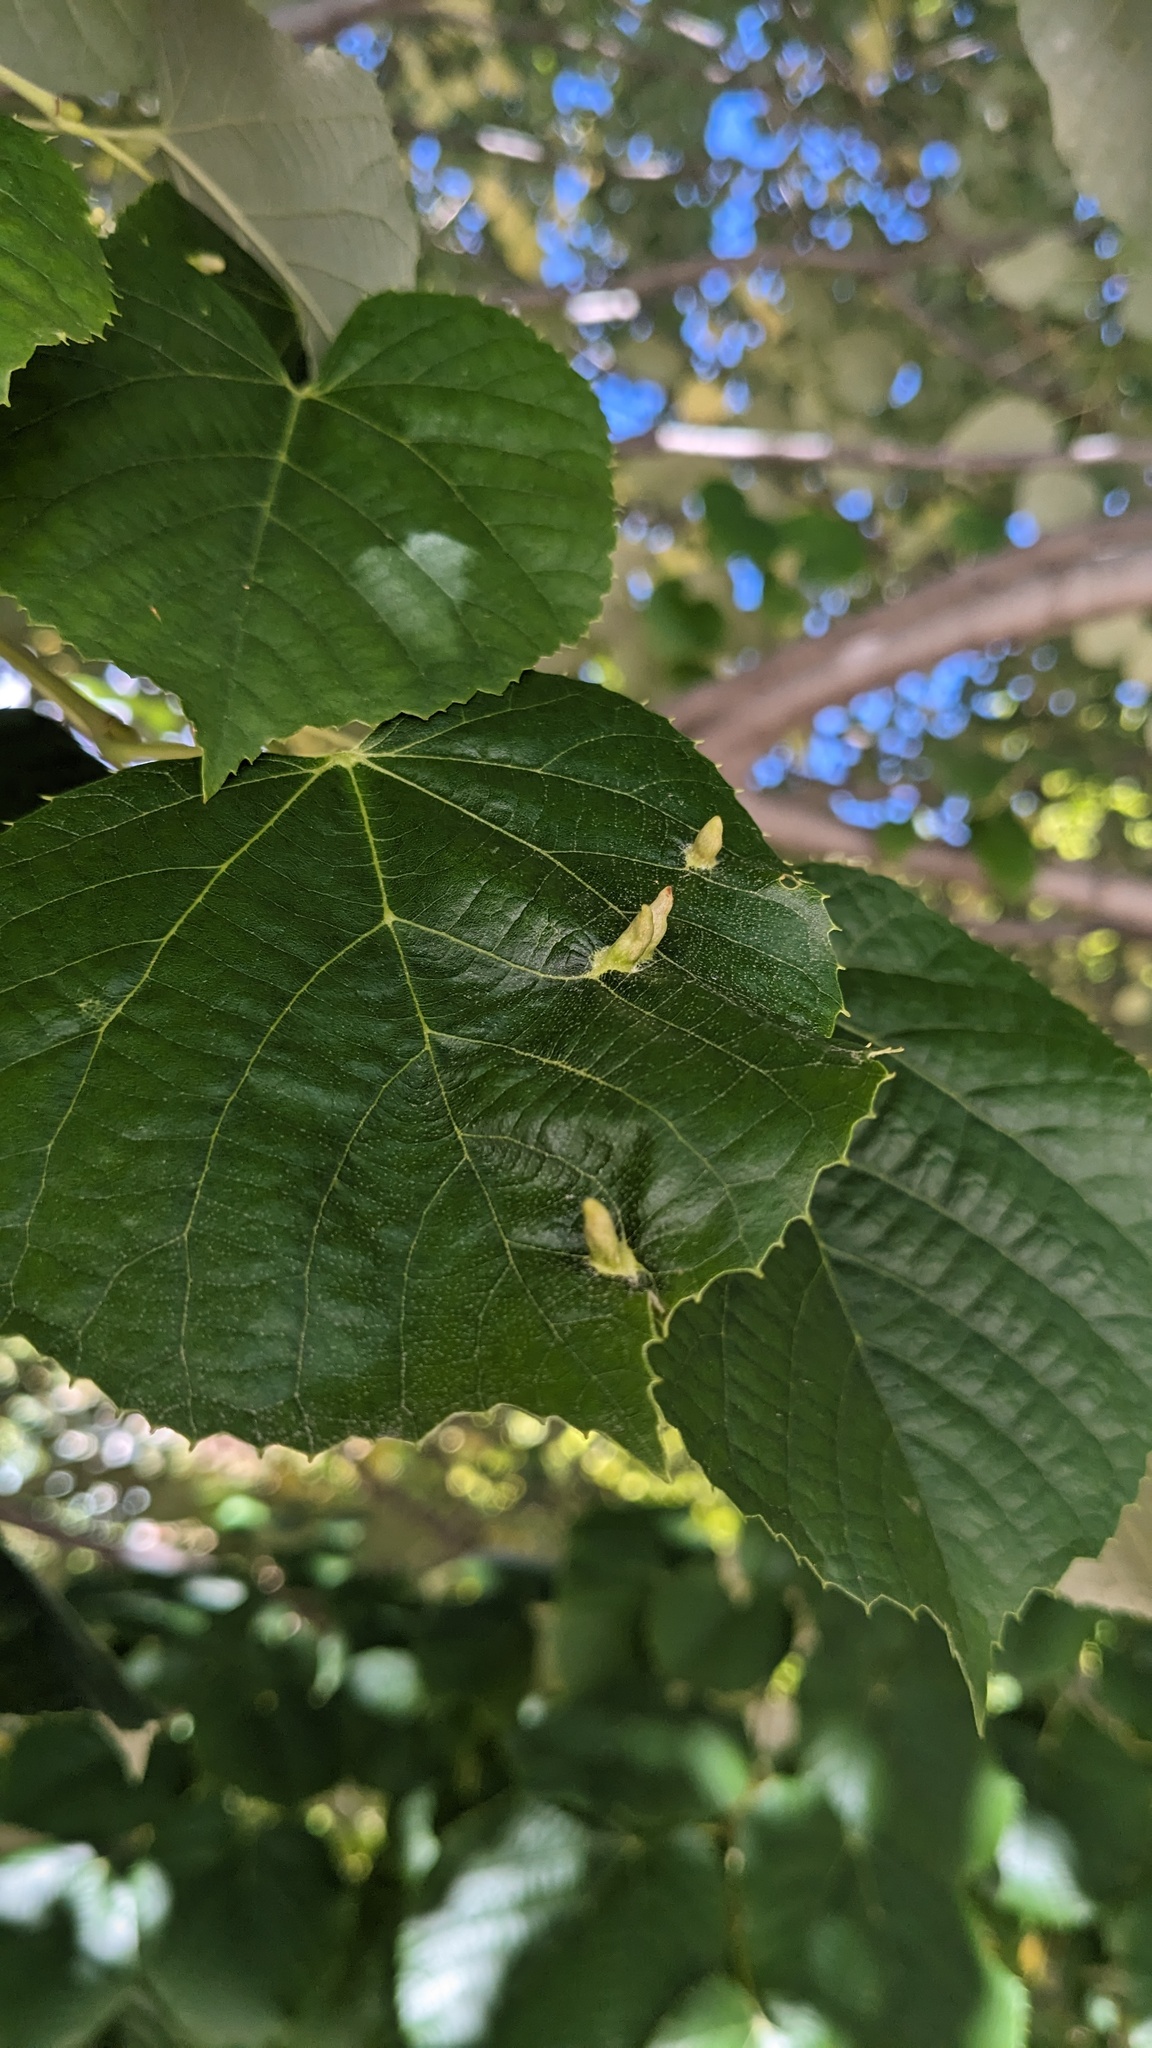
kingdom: Animalia
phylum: Arthropoda
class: Arachnida
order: Trombidiformes
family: Eriophyidae
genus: Eriophyes
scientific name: Eriophyes tiliae
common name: Red nail gall mite
